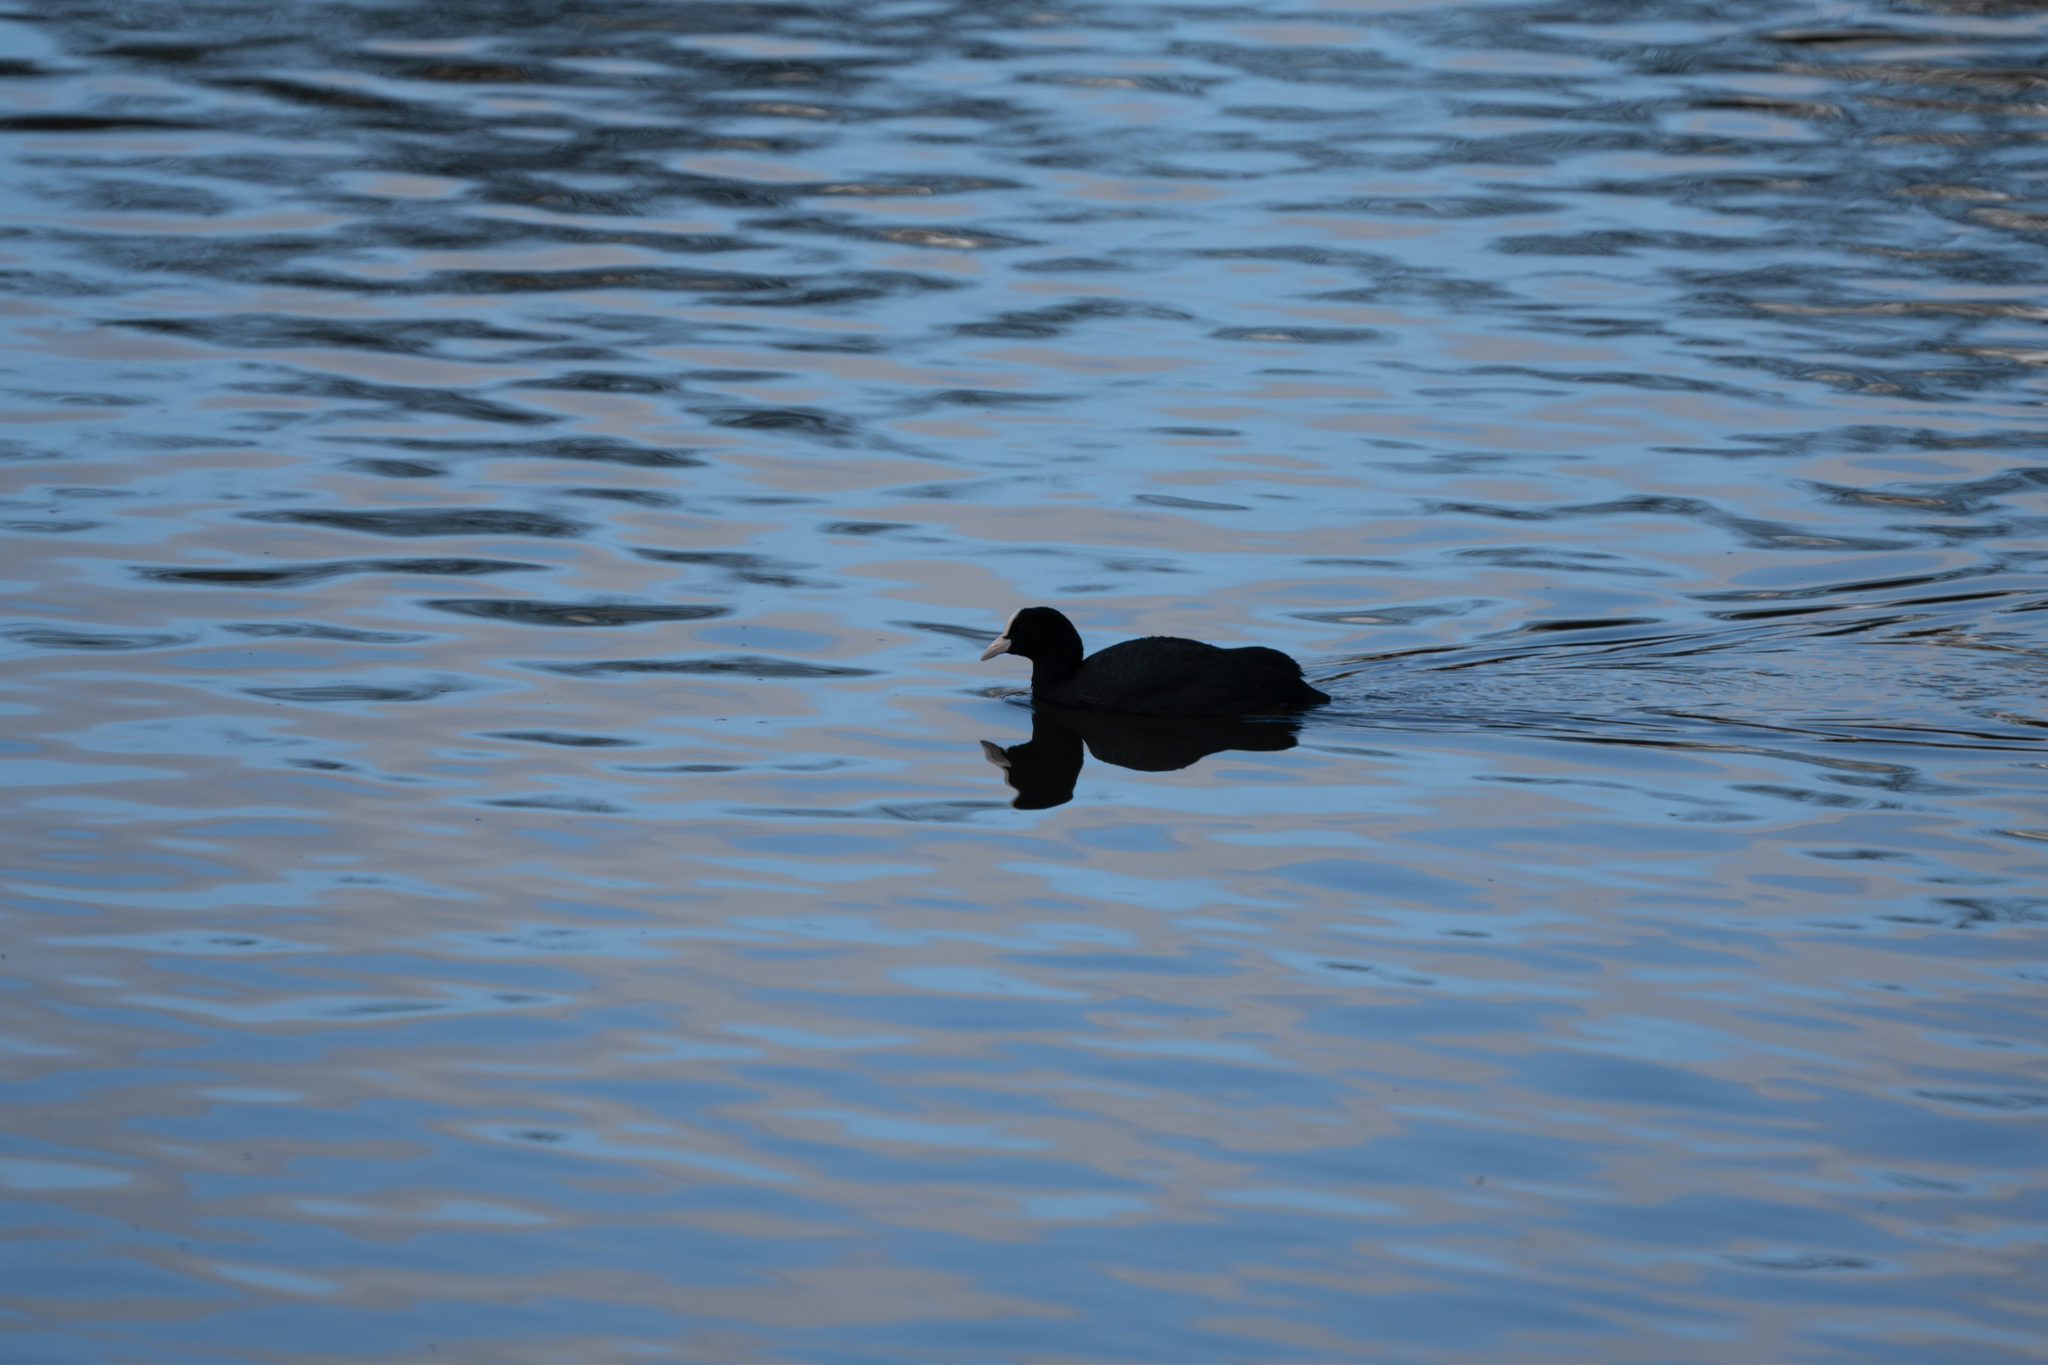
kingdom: Animalia
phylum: Chordata
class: Aves
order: Gruiformes
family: Rallidae
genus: Fulica
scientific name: Fulica atra
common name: Eurasian coot
